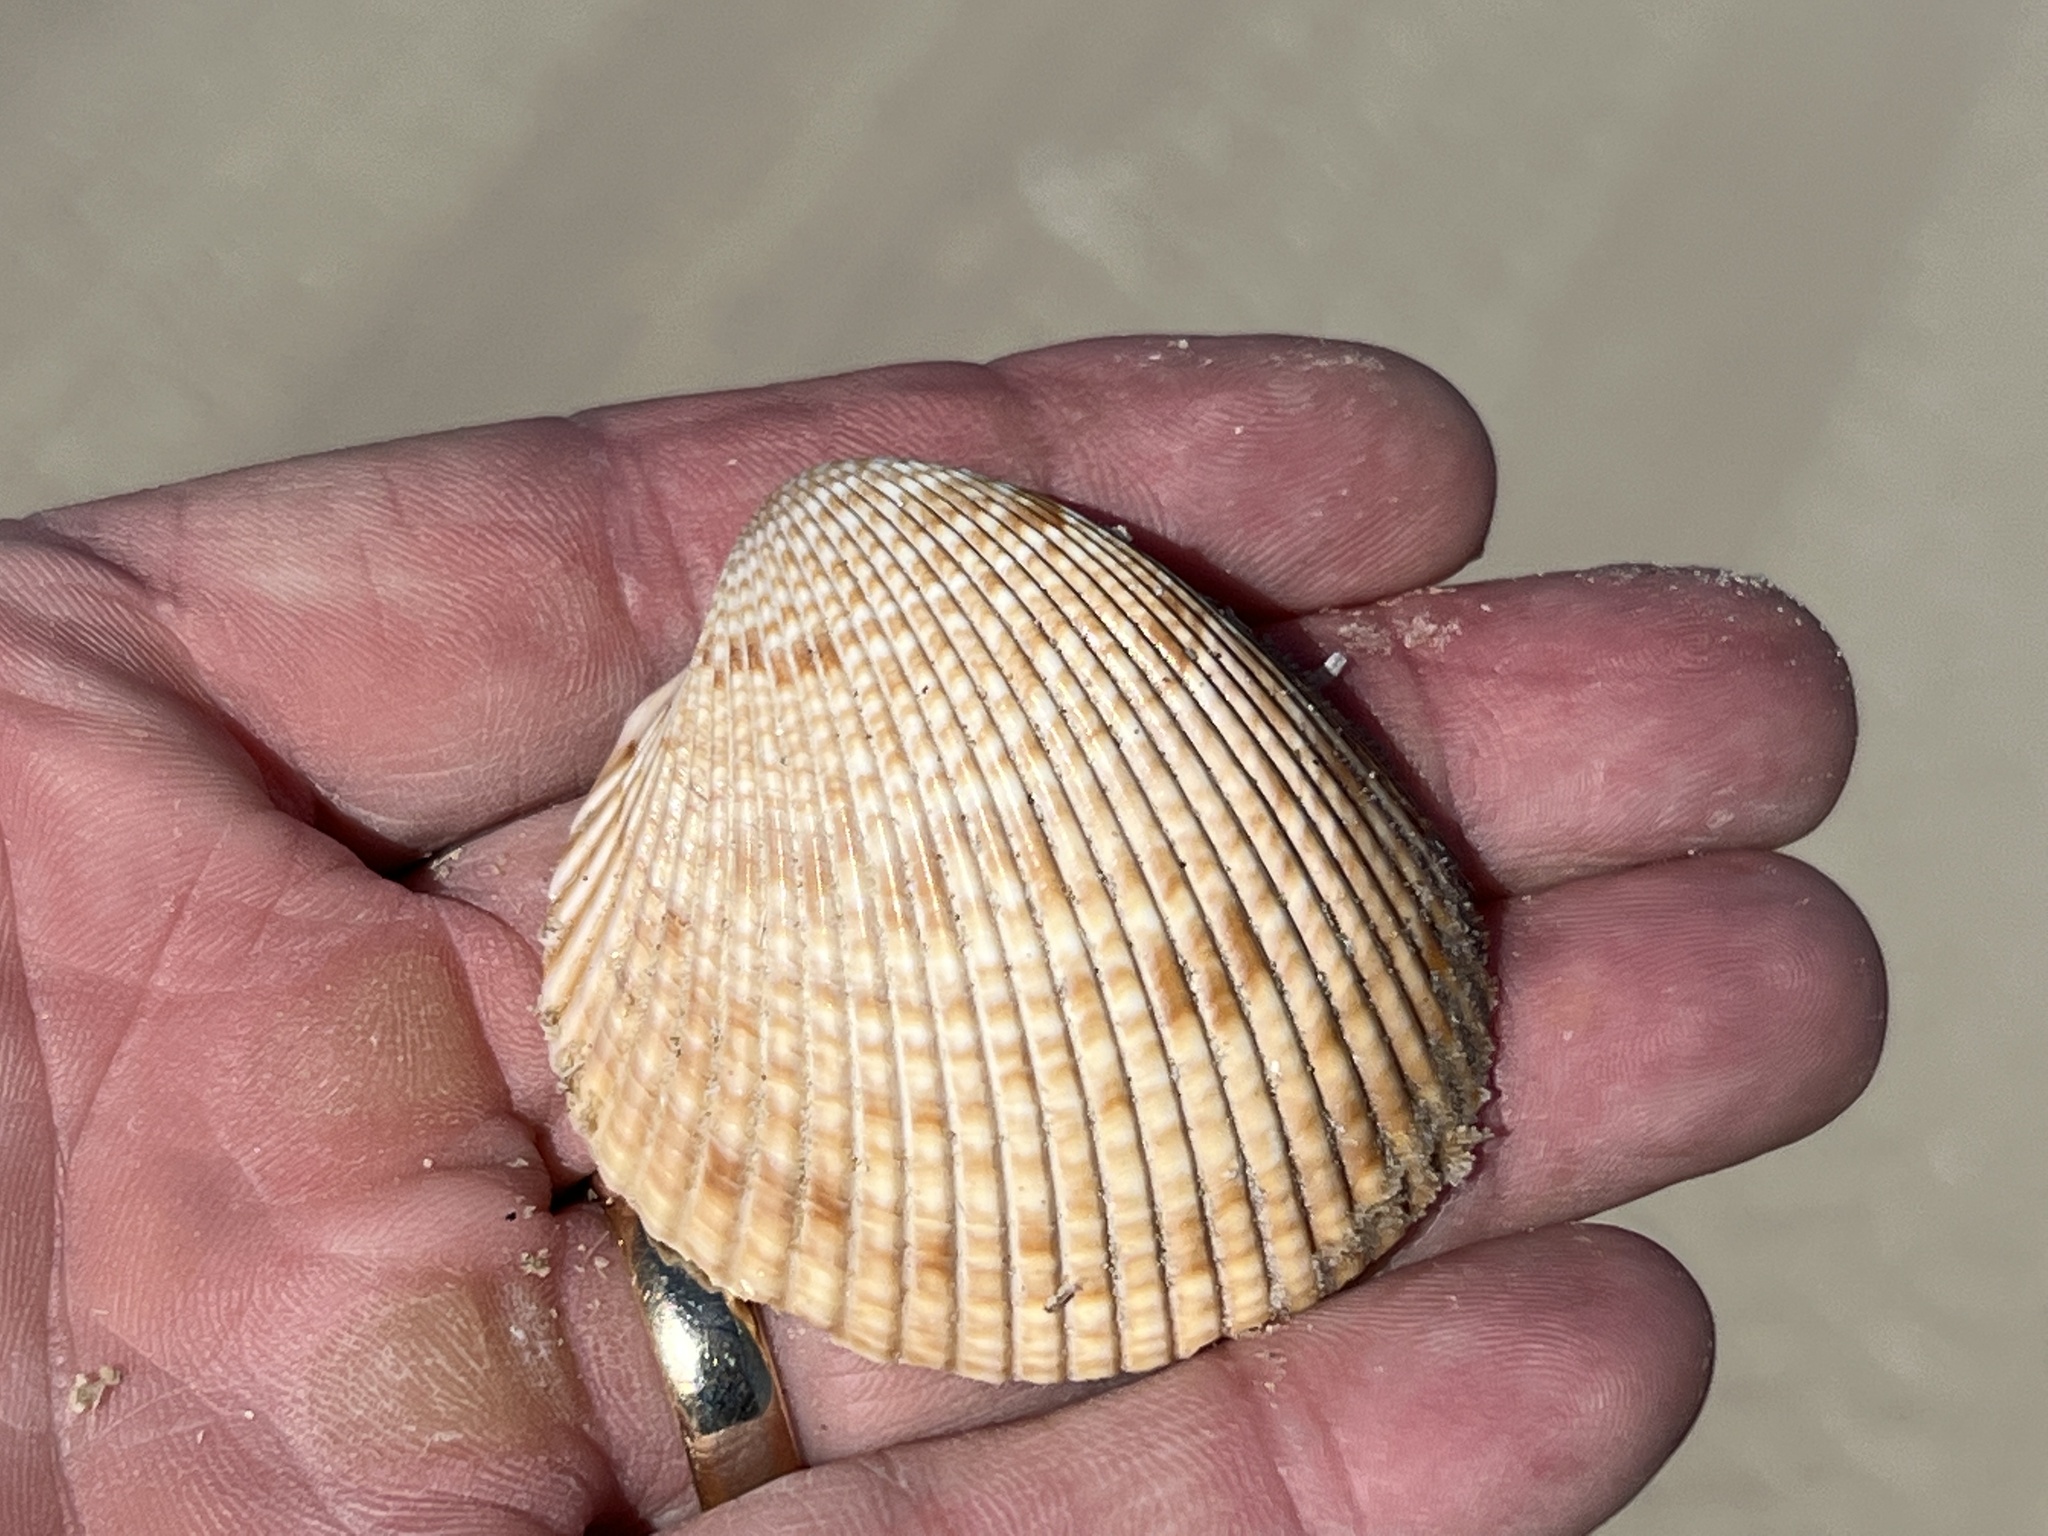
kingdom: Animalia
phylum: Mollusca
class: Bivalvia
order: Cardiida
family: Cardiidae
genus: Dinocardium
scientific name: Dinocardium robustum
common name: Atlantic giant cockle
